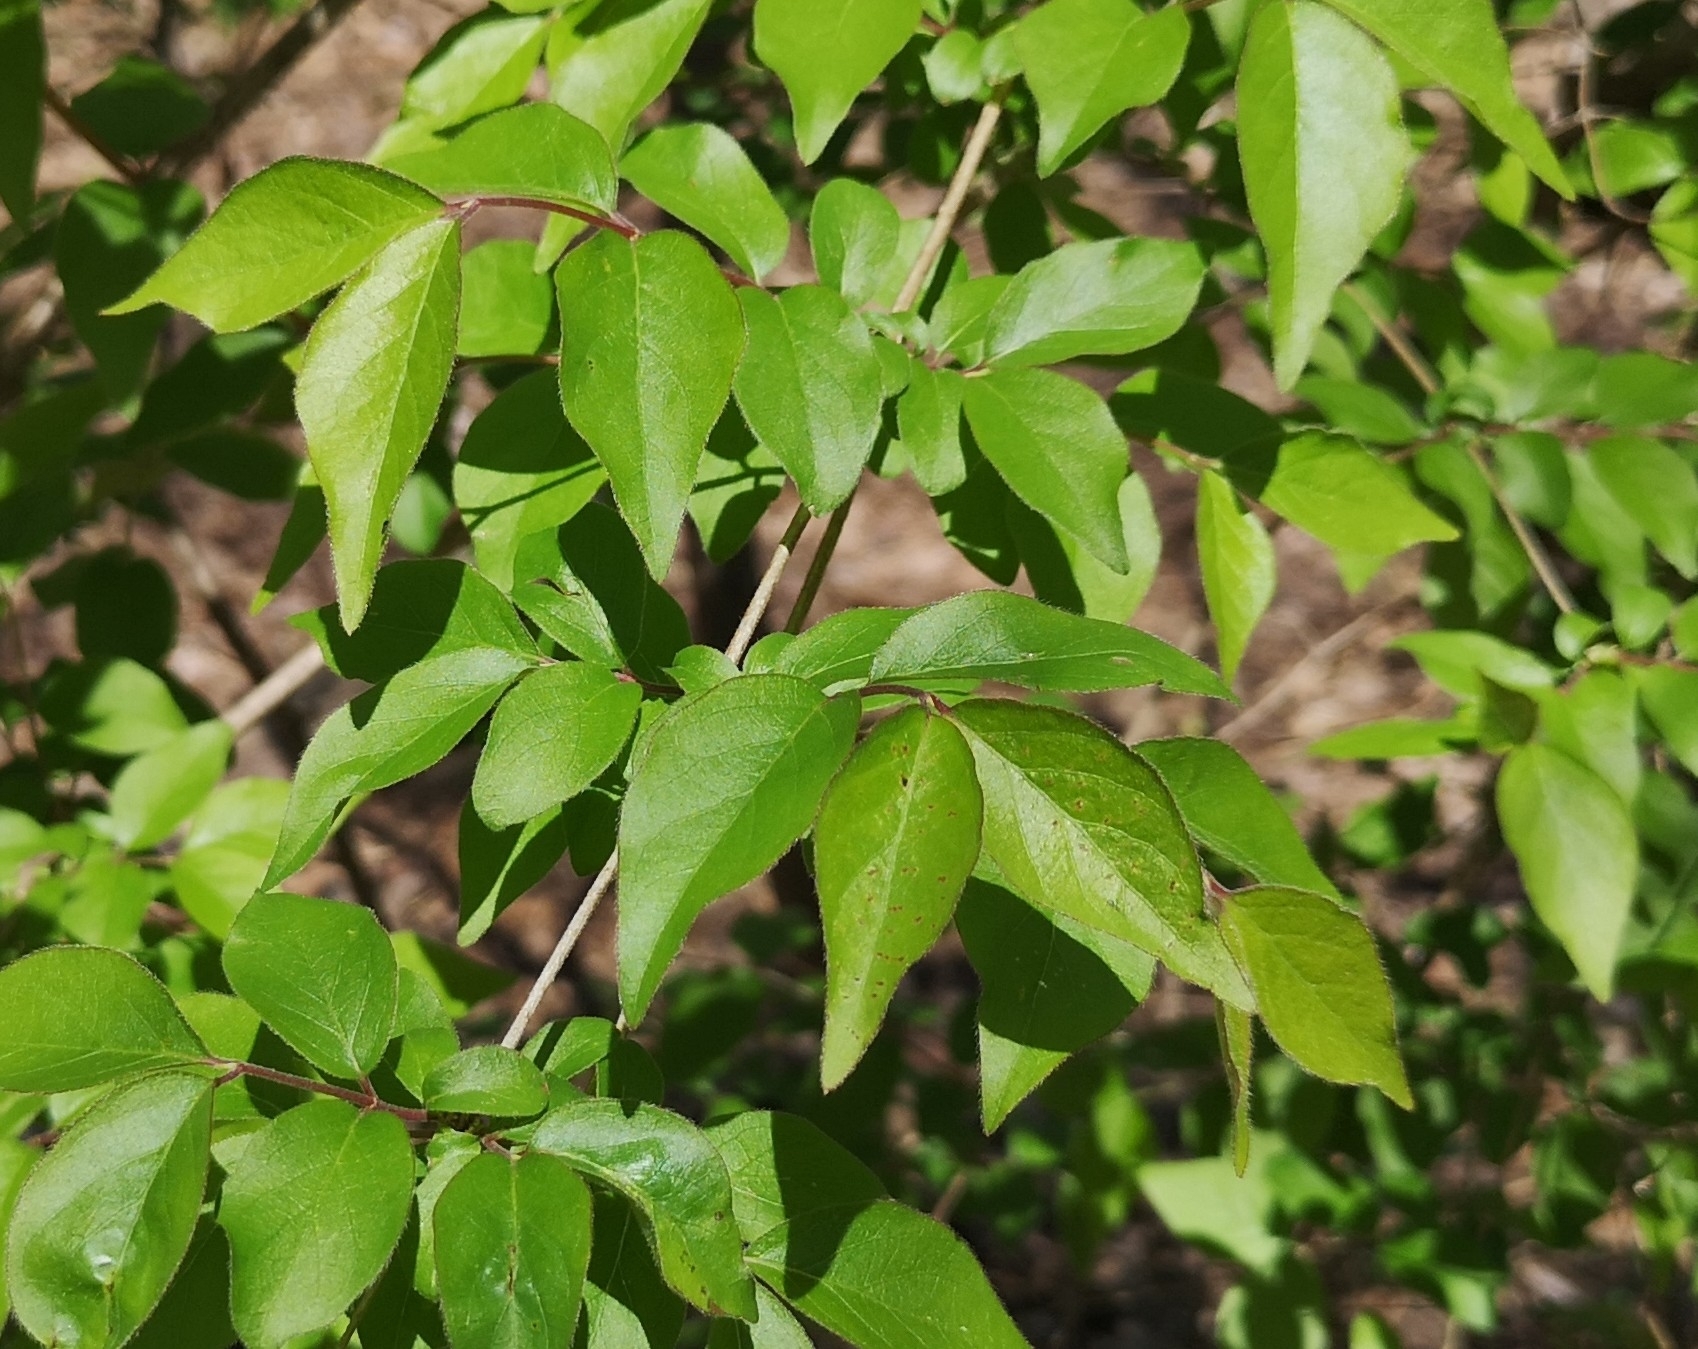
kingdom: Plantae
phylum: Tracheophyta
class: Magnoliopsida
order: Dipsacales
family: Caprifoliaceae
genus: Lonicera
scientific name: Lonicera maackii
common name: Amur honeysuckle
